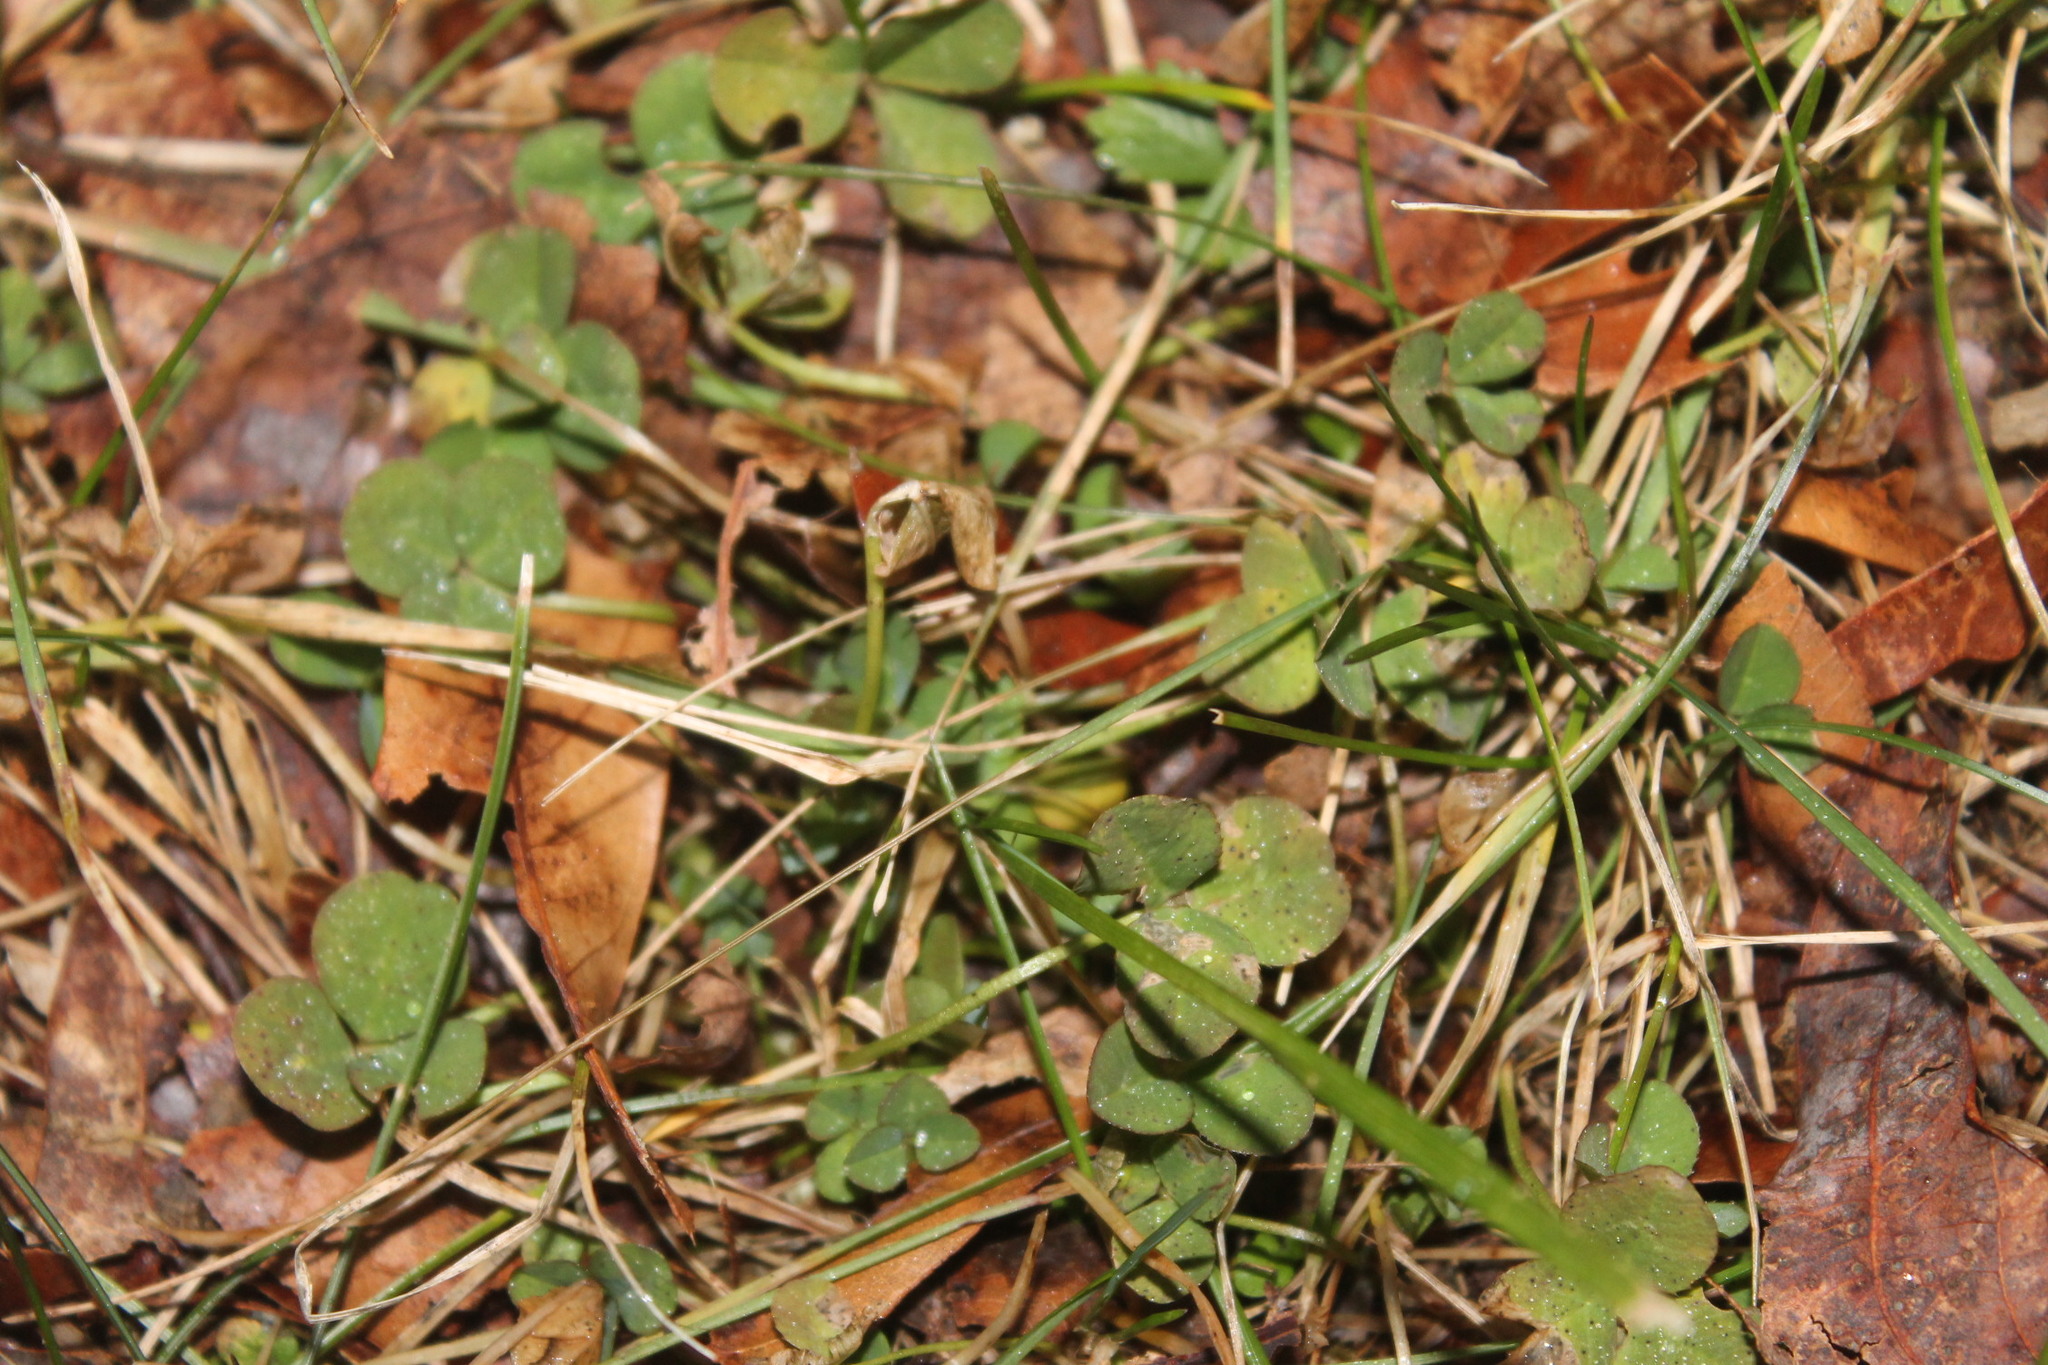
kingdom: Plantae
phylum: Tracheophyta
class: Magnoliopsida
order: Fabales
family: Fabaceae
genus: Trifolium
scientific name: Trifolium repens
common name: White clover
